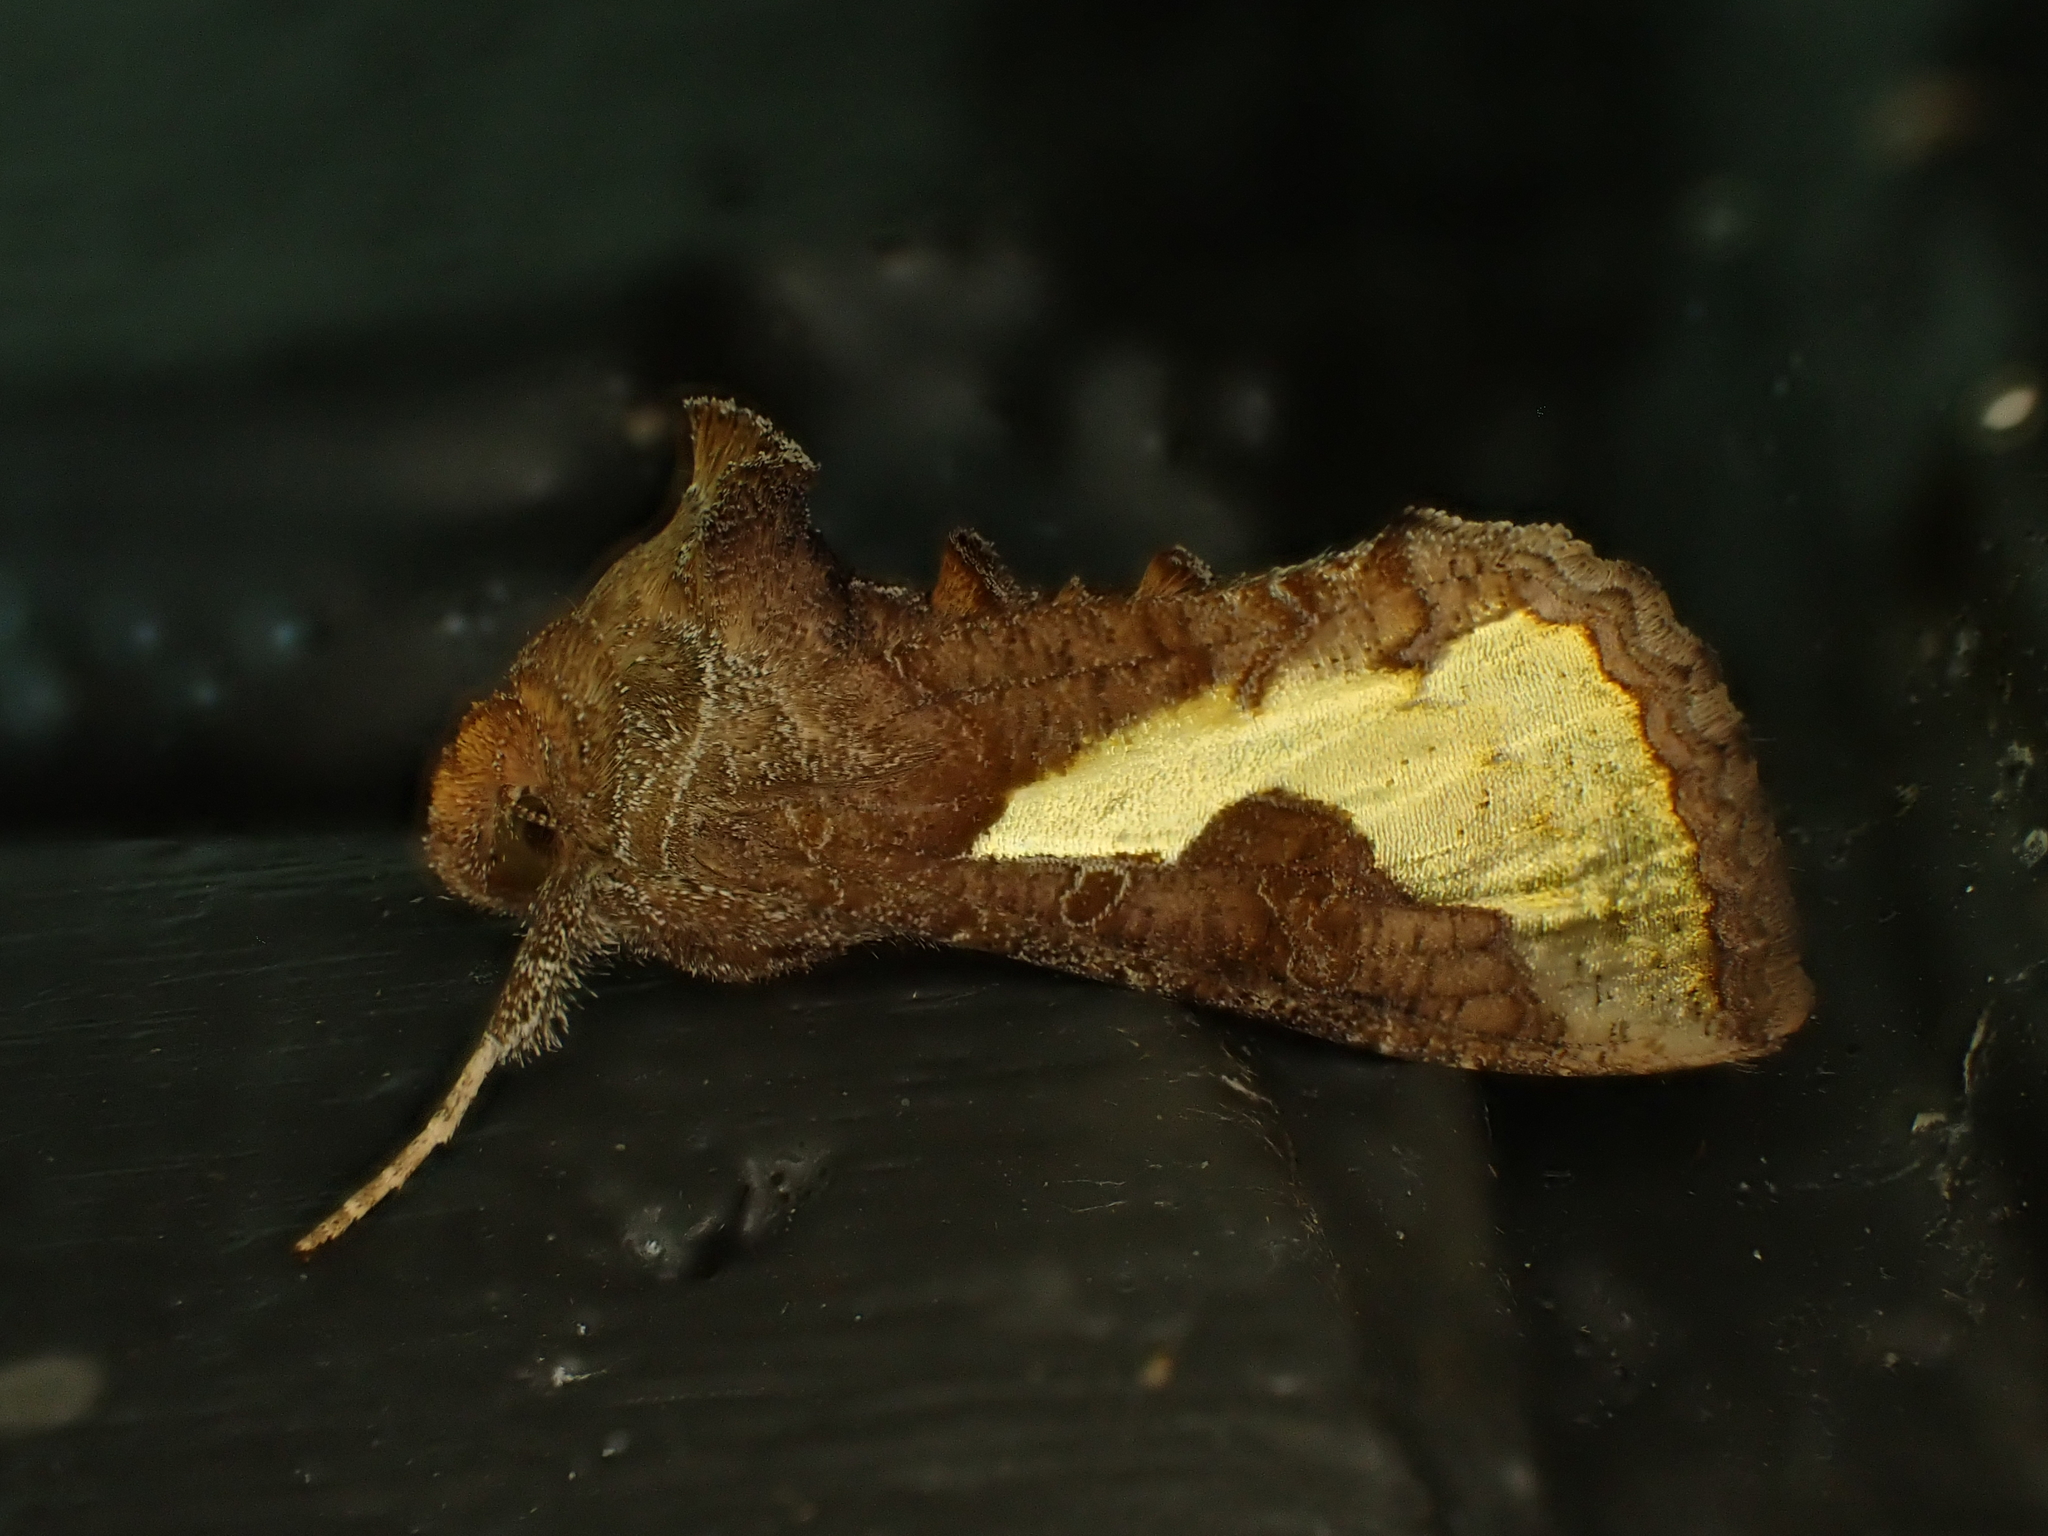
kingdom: Animalia
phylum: Arthropoda
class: Insecta
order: Lepidoptera
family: Noctuidae
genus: Thysanoplusia
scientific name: Thysanoplusia orichalcea
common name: Slender burnished brass, golden plusia
